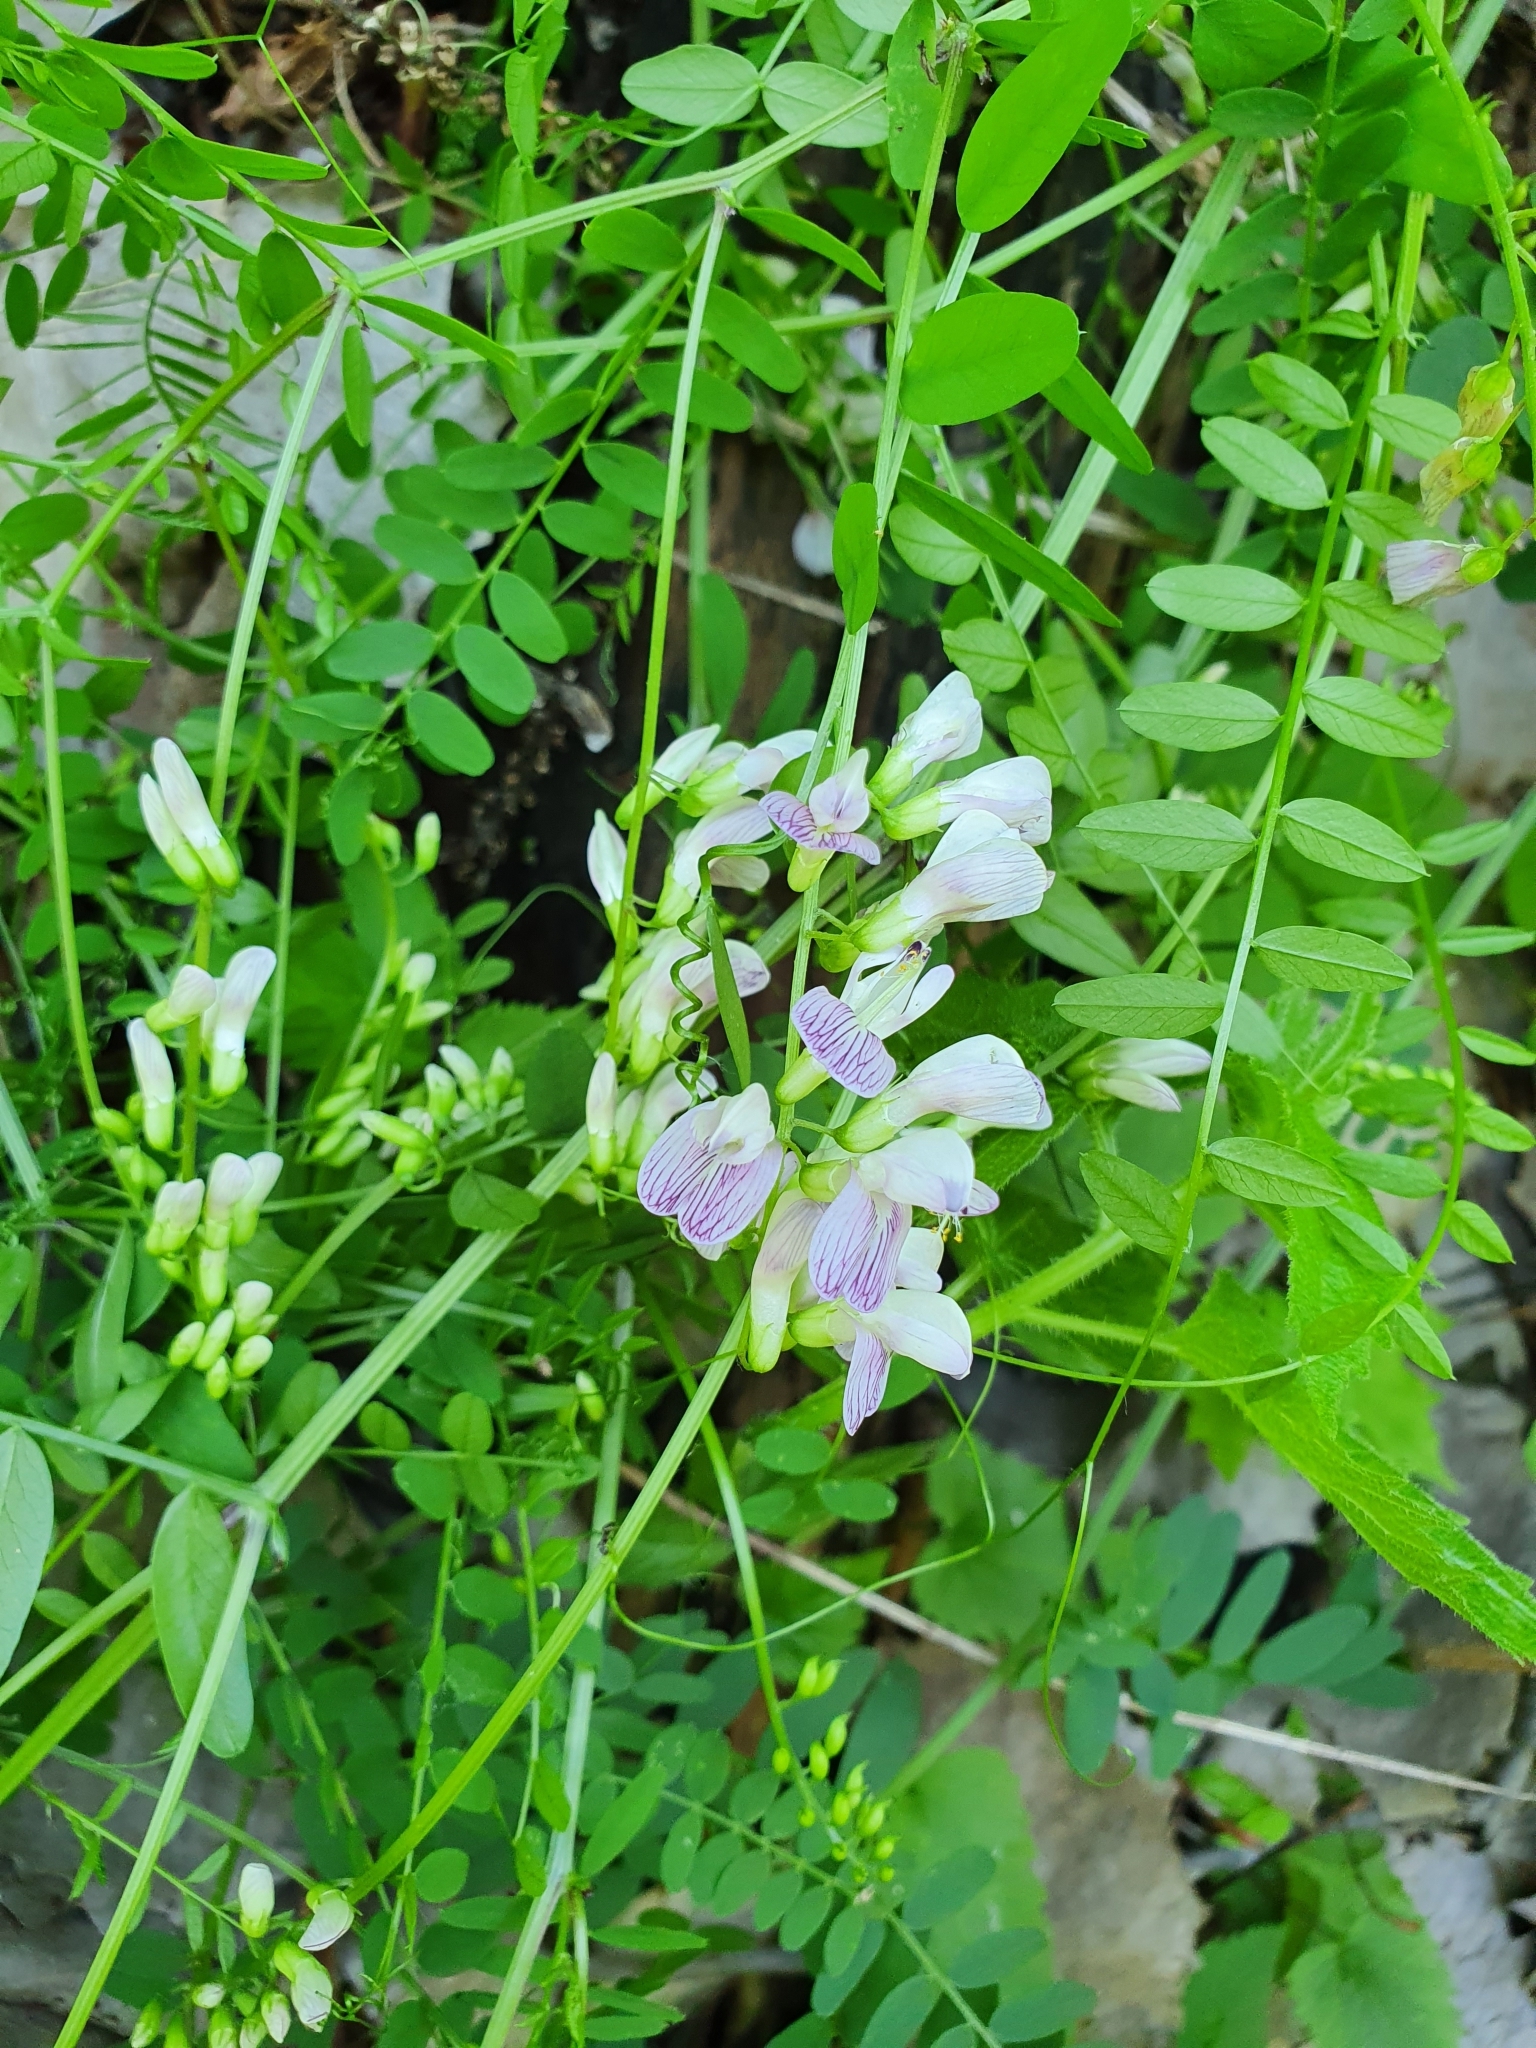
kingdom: Plantae
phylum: Tracheophyta
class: Magnoliopsida
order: Fabales
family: Fabaceae
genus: Vicia
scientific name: Vicia sylvatica
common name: Wood vetch
